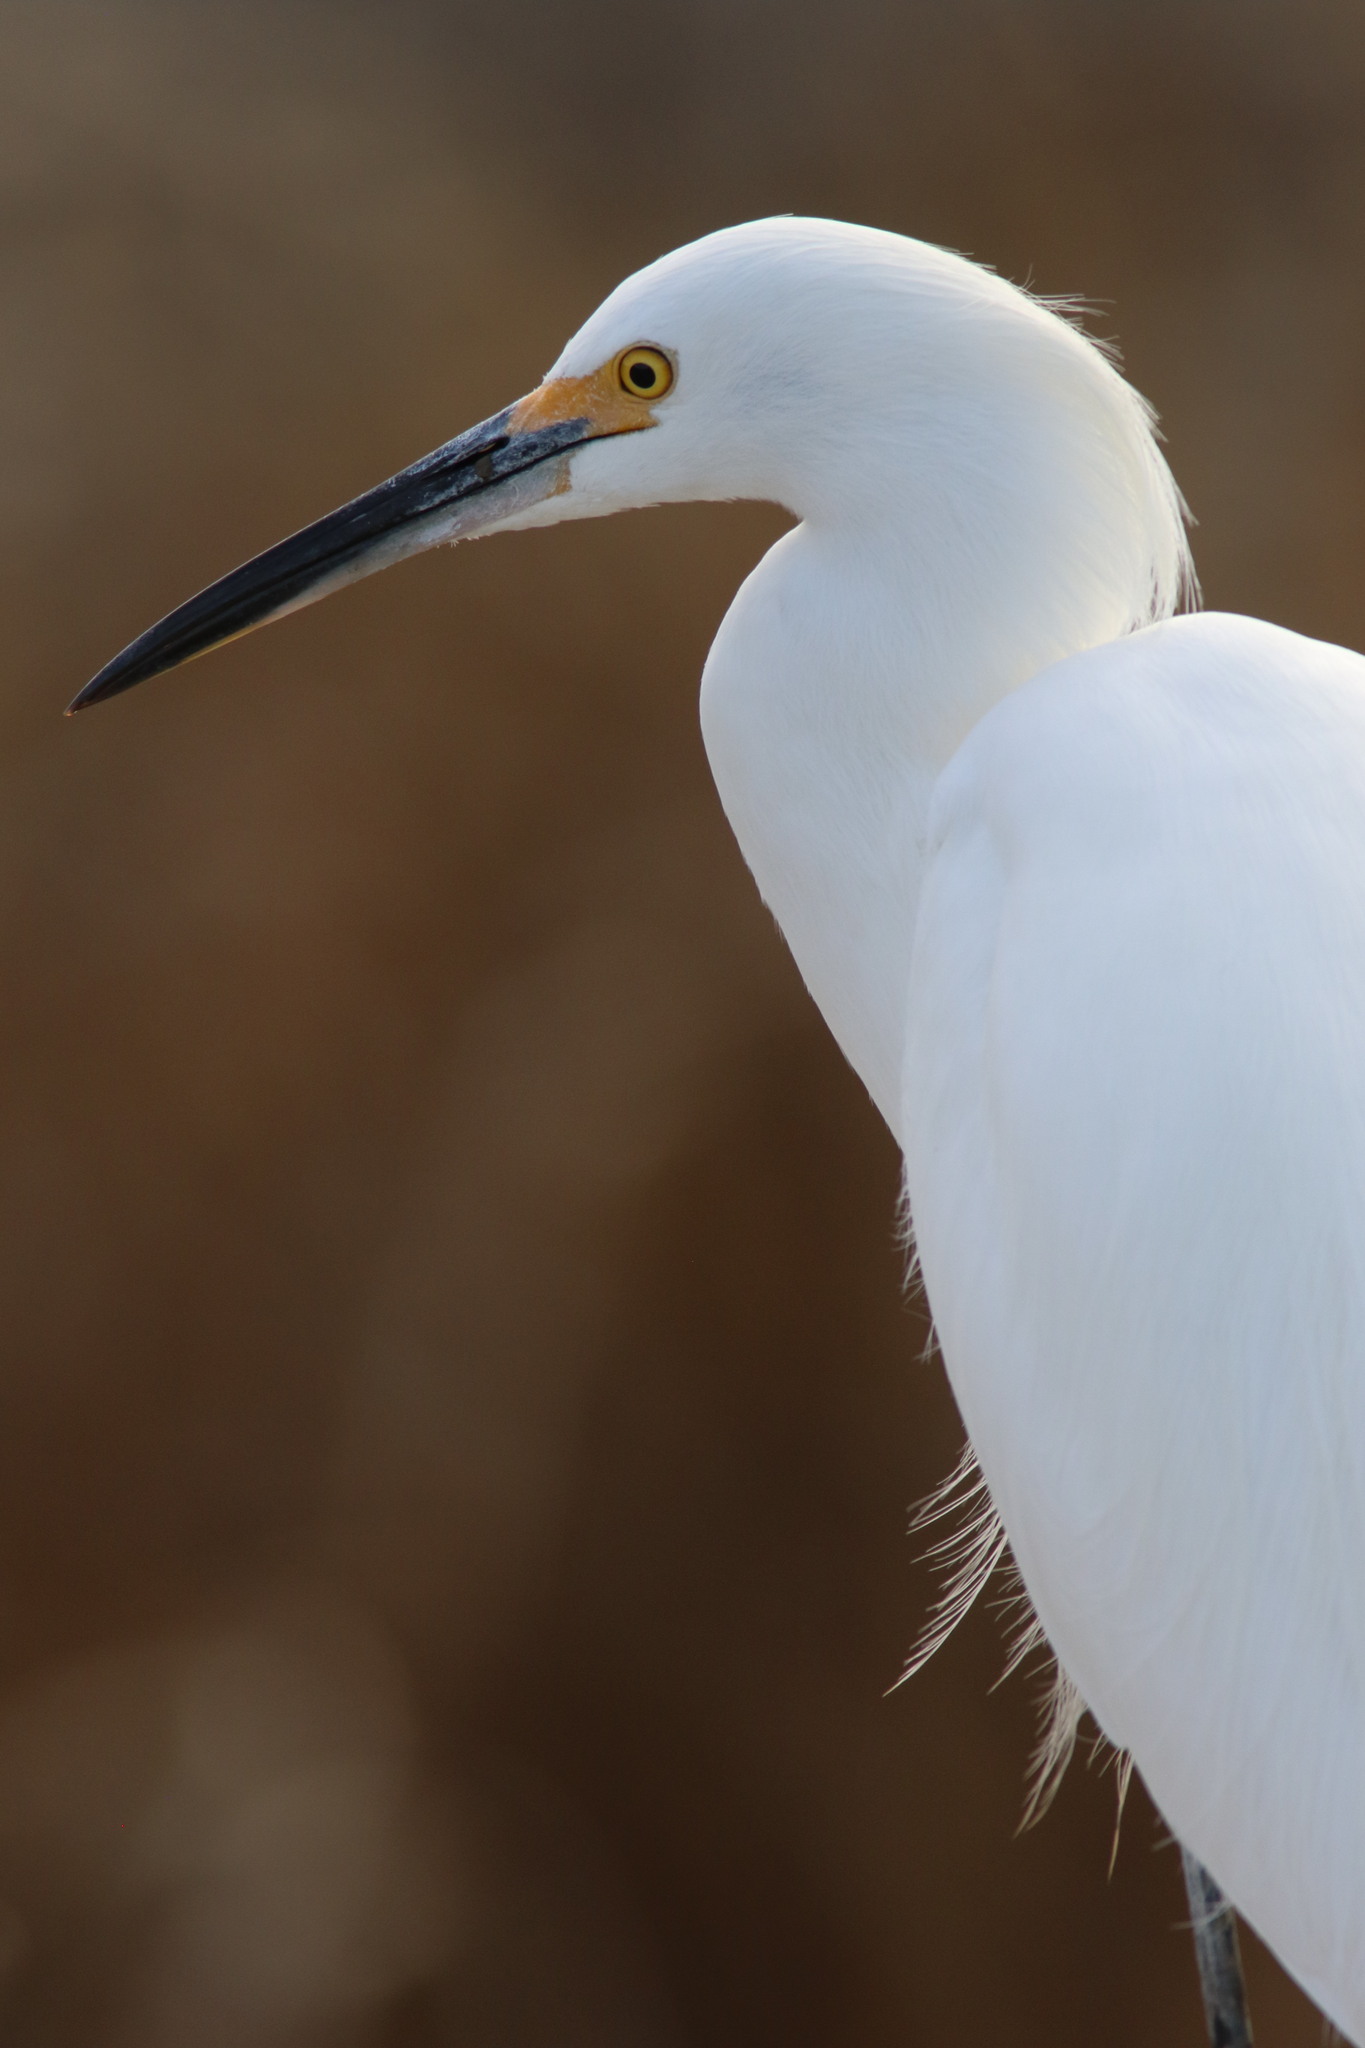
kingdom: Animalia
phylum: Chordata
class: Aves
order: Pelecaniformes
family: Ardeidae
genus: Egretta
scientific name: Egretta thula
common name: Snowy egret
